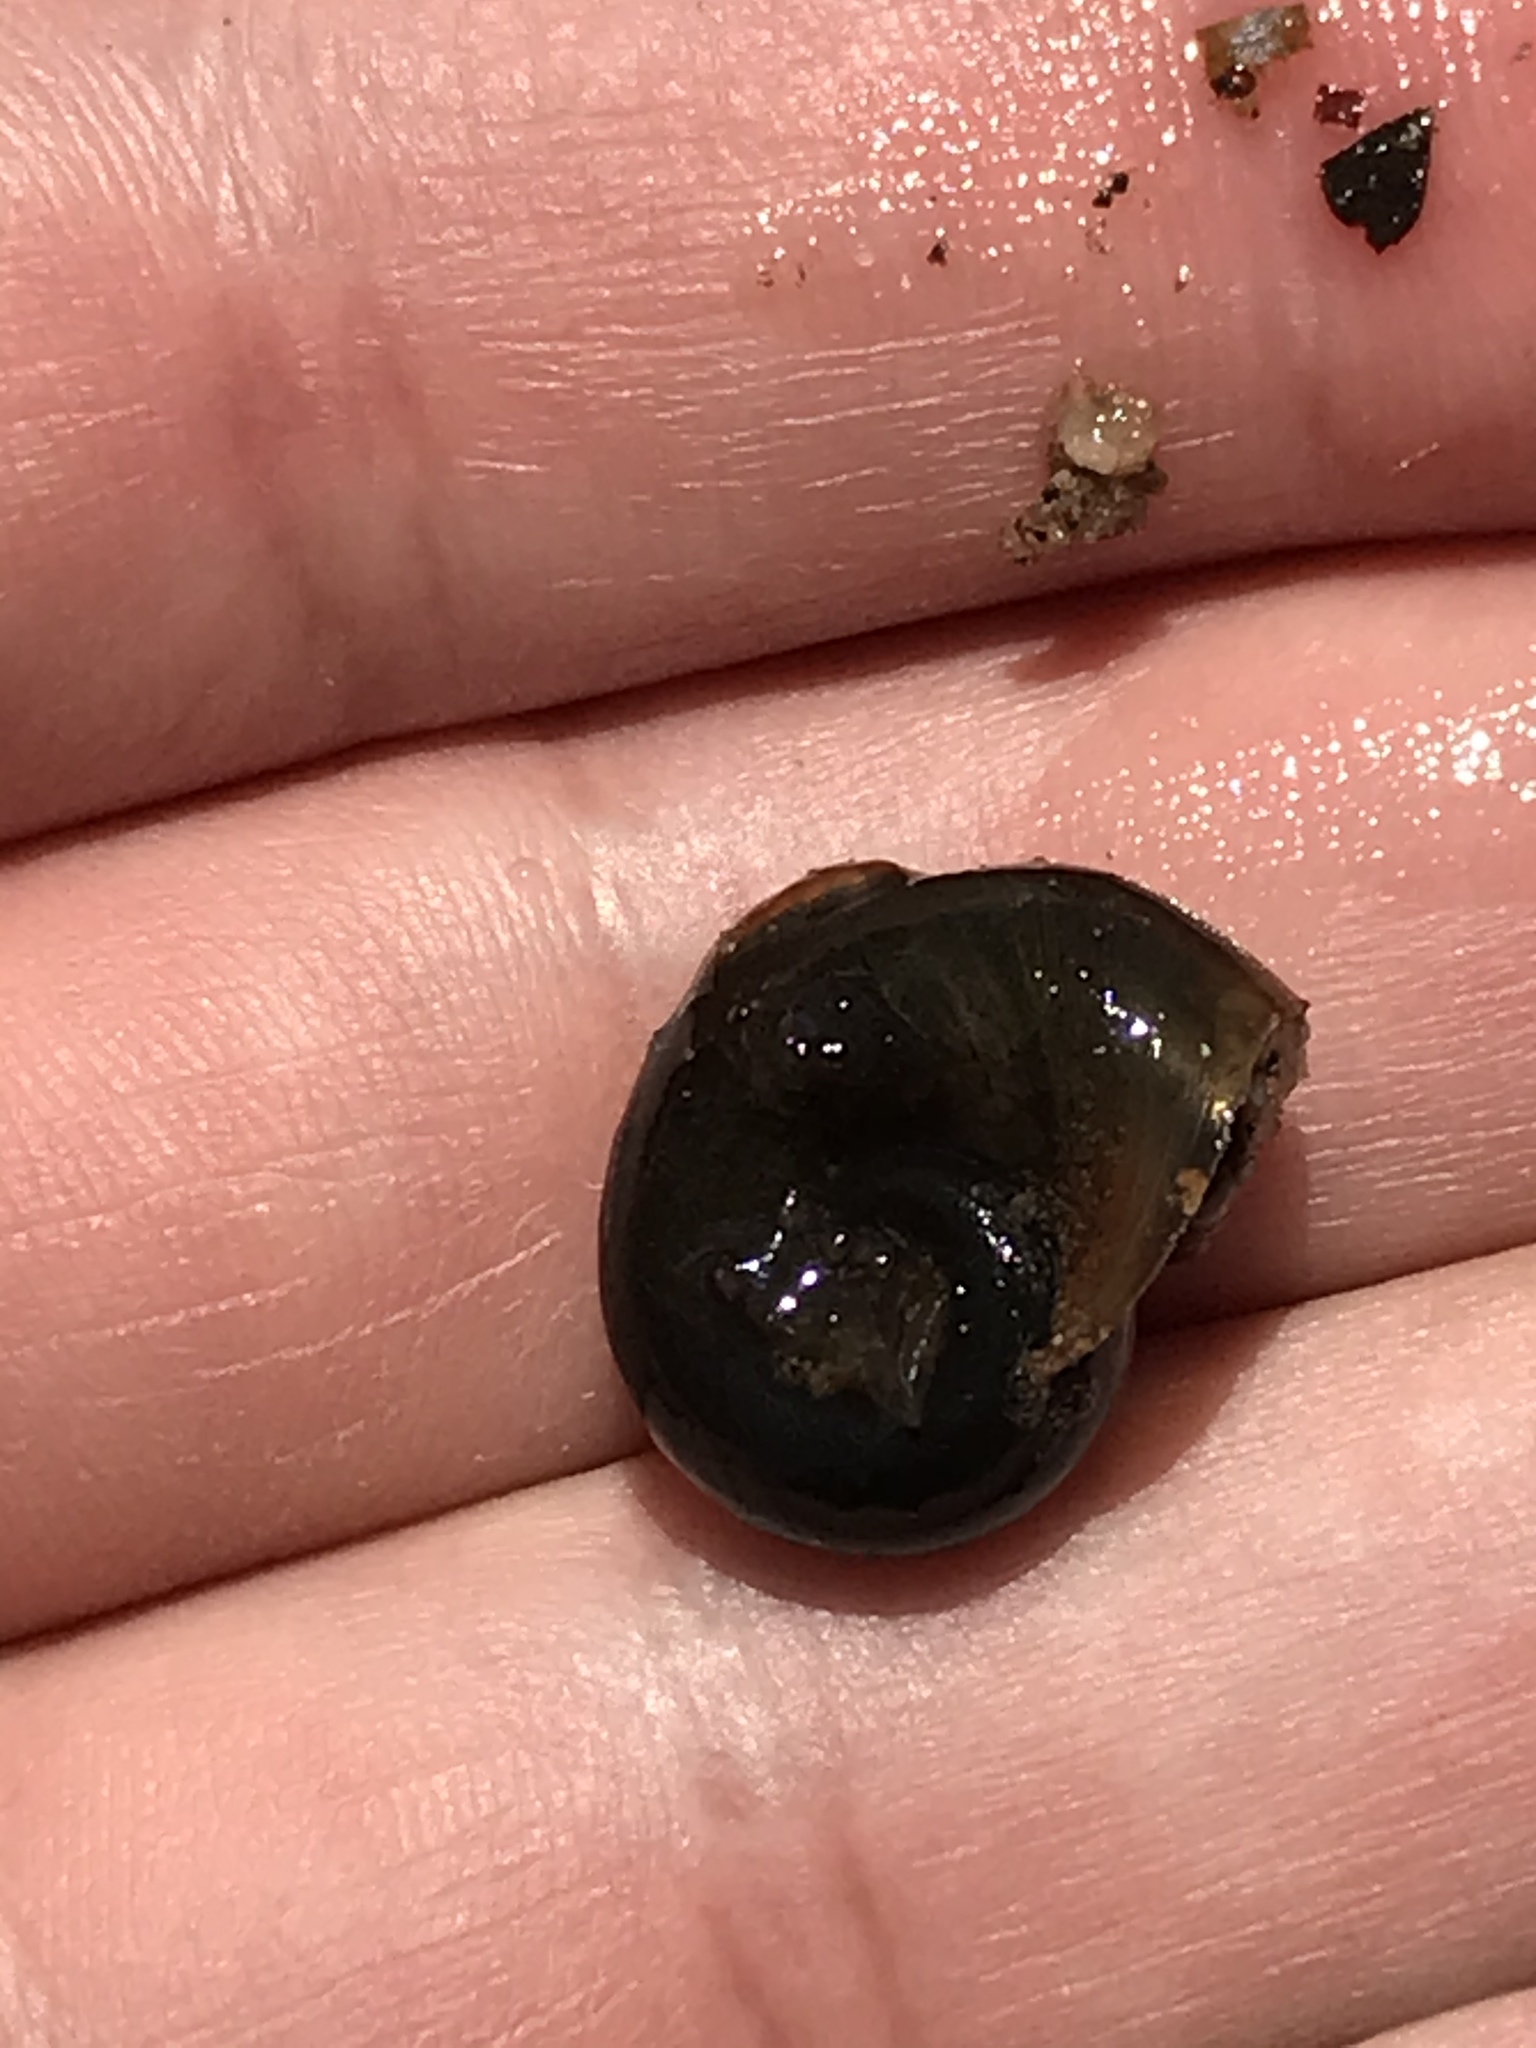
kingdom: Animalia
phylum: Mollusca
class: Gastropoda
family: Planorbidae
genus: Planorbella
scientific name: Planorbella trivolvis
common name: Marsh rams-horn
